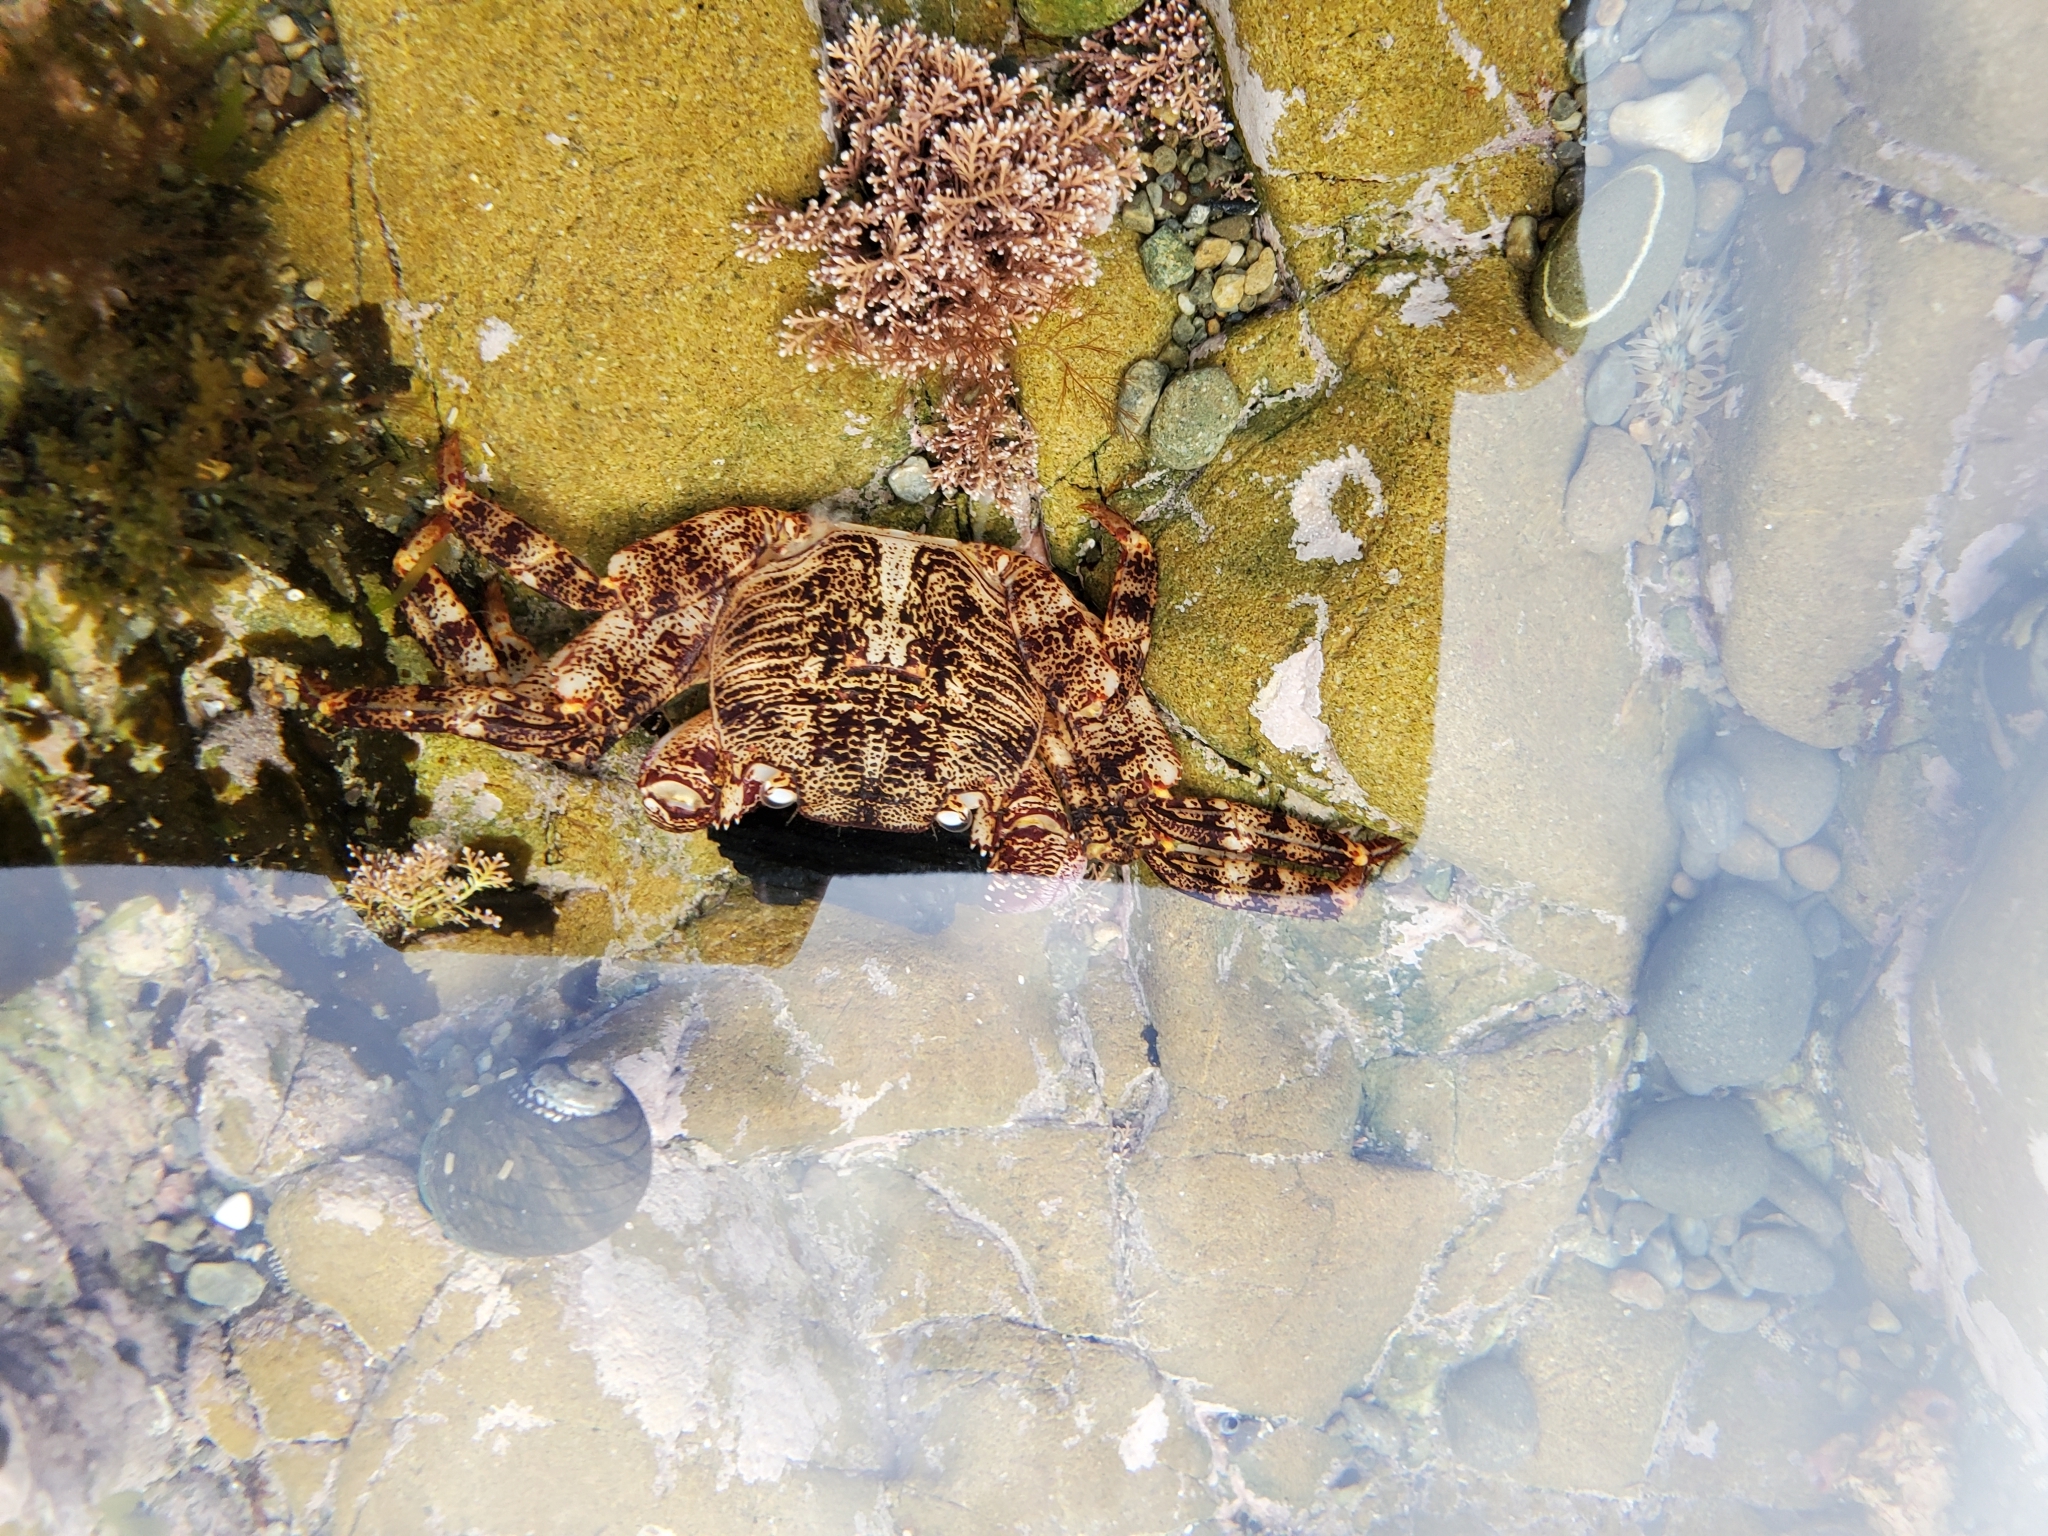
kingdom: Animalia
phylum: Arthropoda
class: Malacostraca
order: Decapoda
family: Grapsidae
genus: Leptograpsus
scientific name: Leptograpsus variegatus
